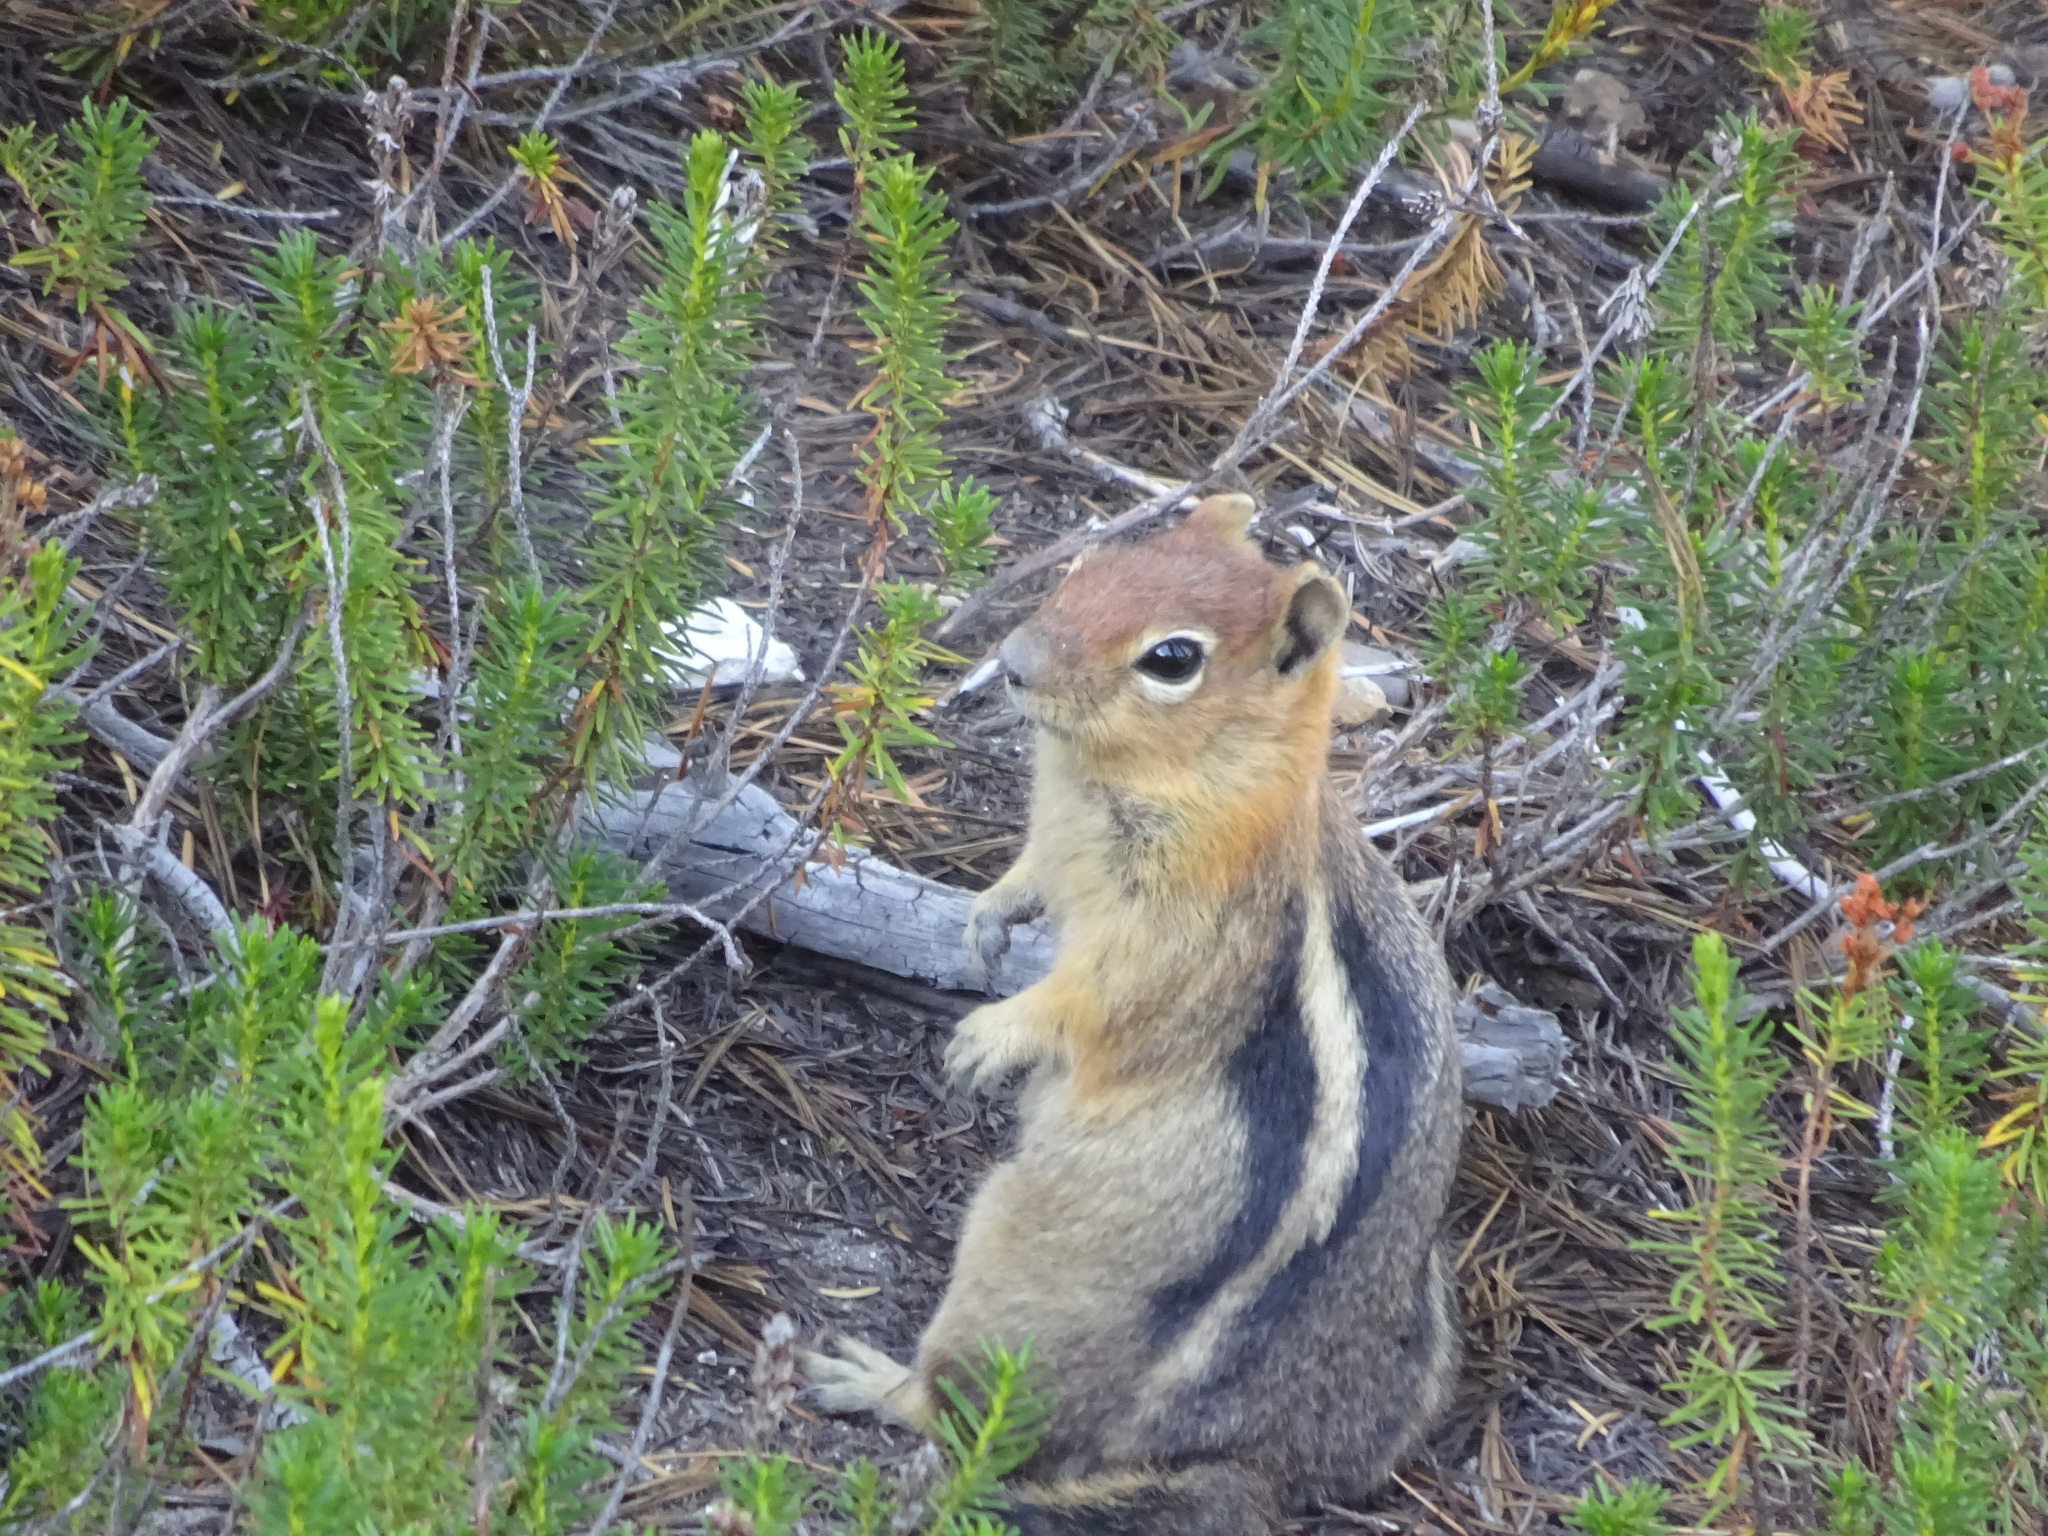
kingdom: Animalia
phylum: Chordata
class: Mammalia
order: Rodentia
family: Sciuridae
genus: Callospermophilus
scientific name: Callospermophilus lateralis
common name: Golden-mantled ground squirrel
